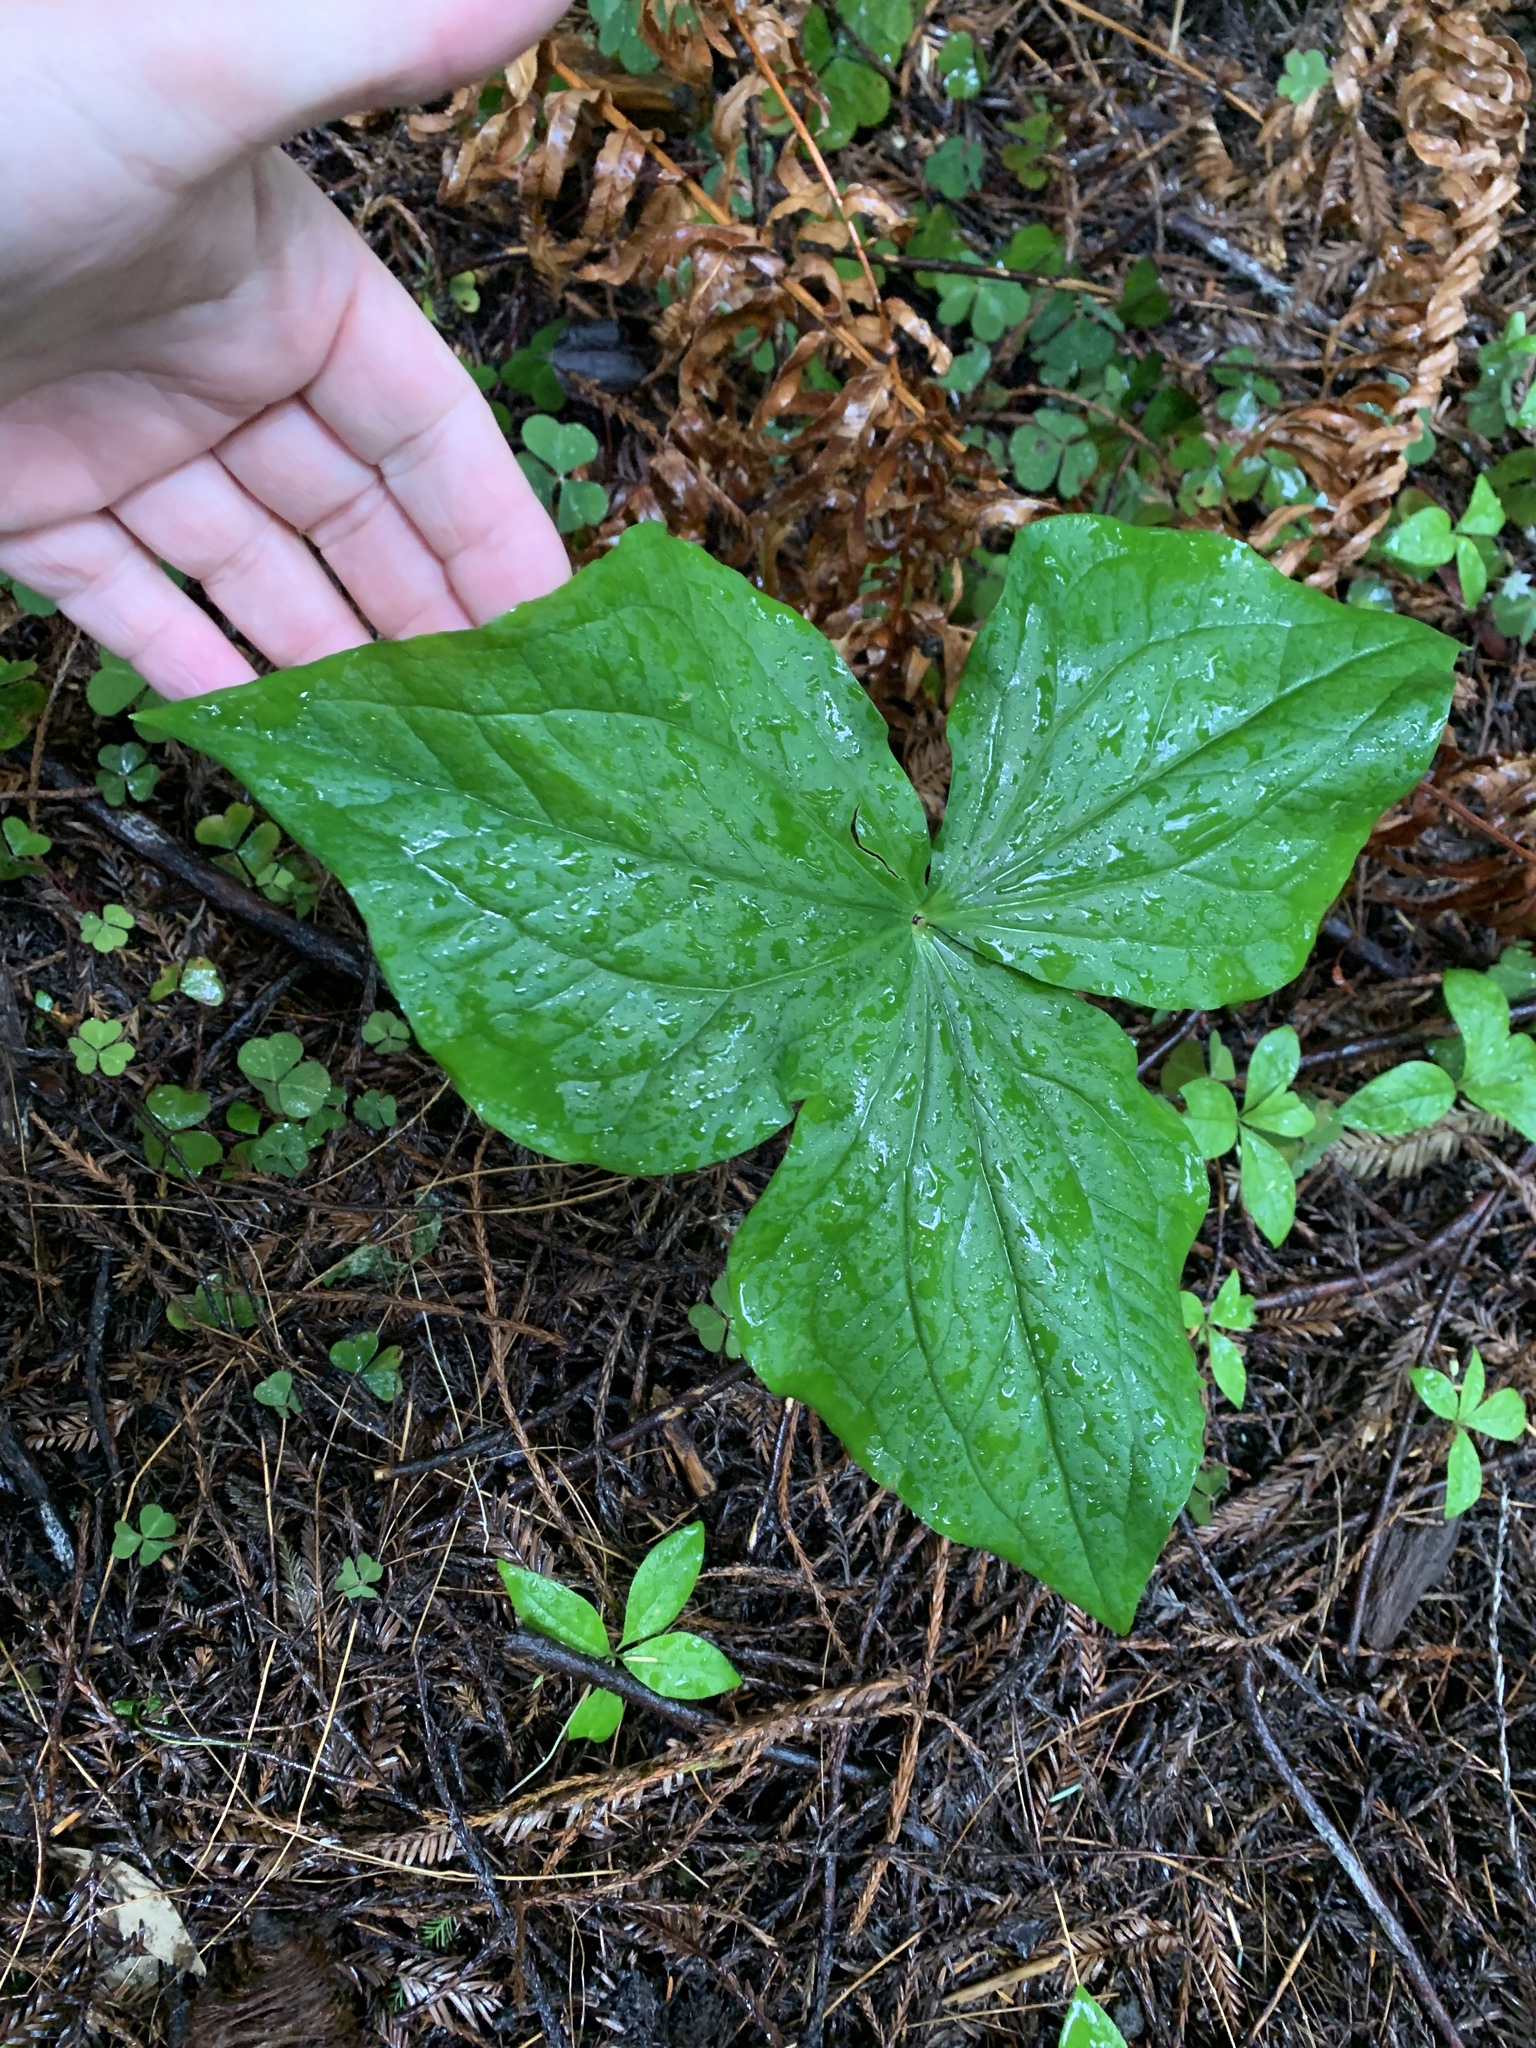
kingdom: Plantae
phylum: Tracheophyta
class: Liliopsida
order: Liliales
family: Melanthiaceae
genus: Trillium
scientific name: Trillium ovatum
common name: Pacific trillium
